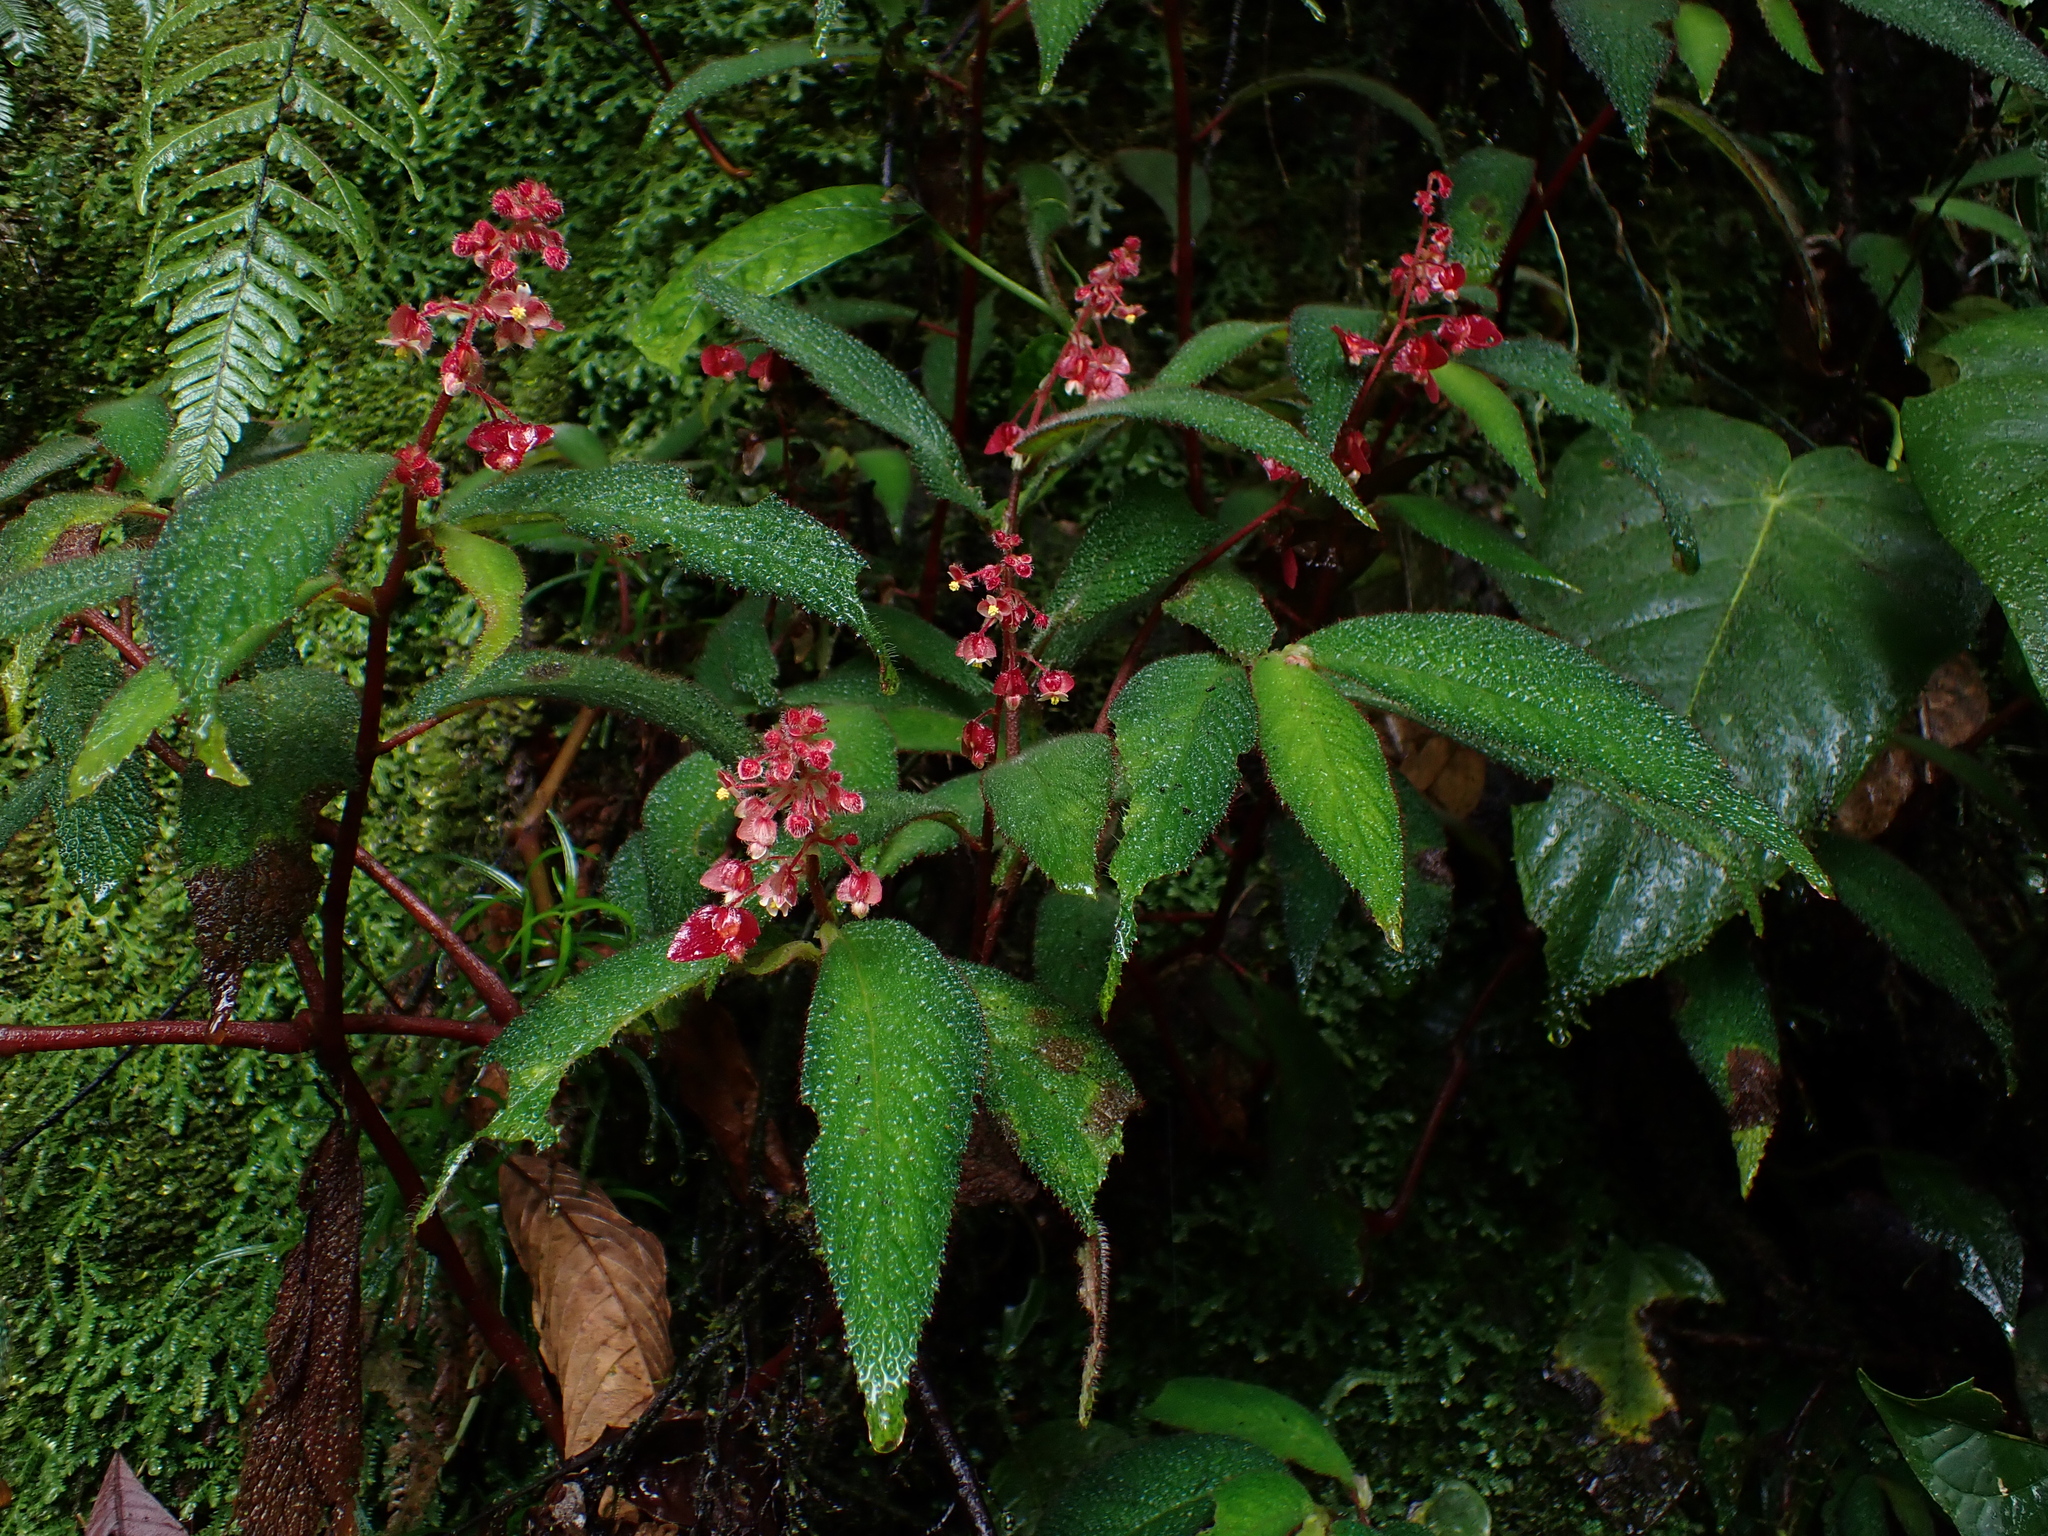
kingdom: Plantae
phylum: Tracheophyta
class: Magnoliopsida
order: Cucurbitales
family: Begoniaceae
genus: Begonia
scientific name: Begonia buddleiifolia
